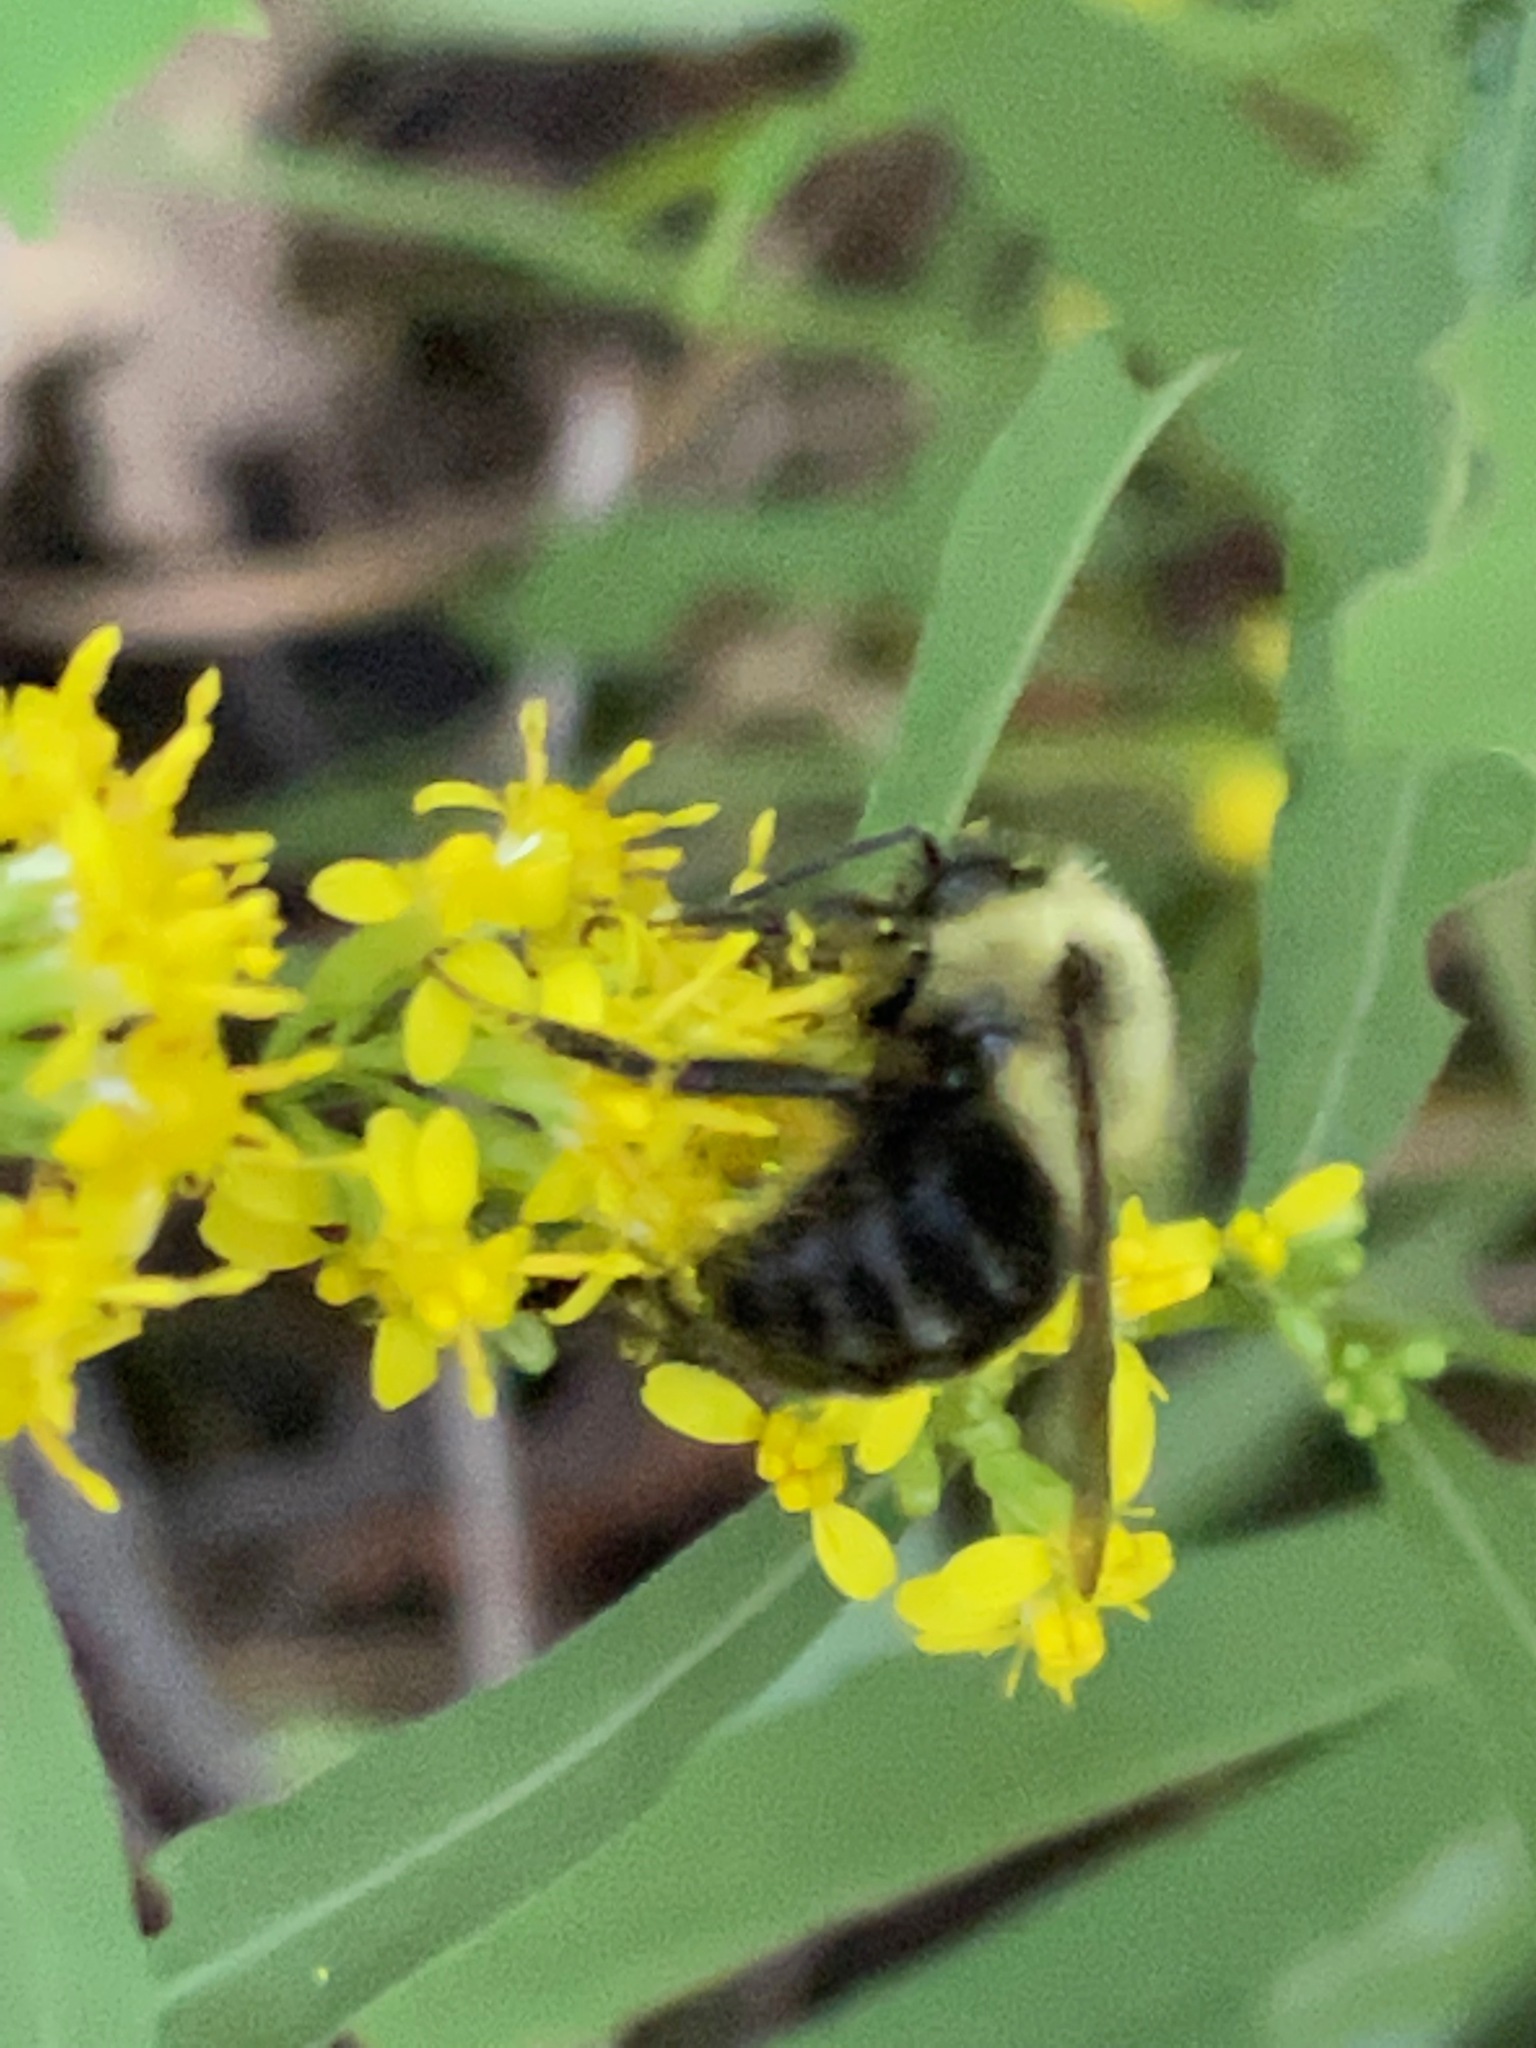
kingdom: Animalia
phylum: Arthropoda
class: Insecta
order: Hymenoptera
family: Apidae
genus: Bombus
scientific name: Bombus impatiens
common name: Common eastern bumble bee
